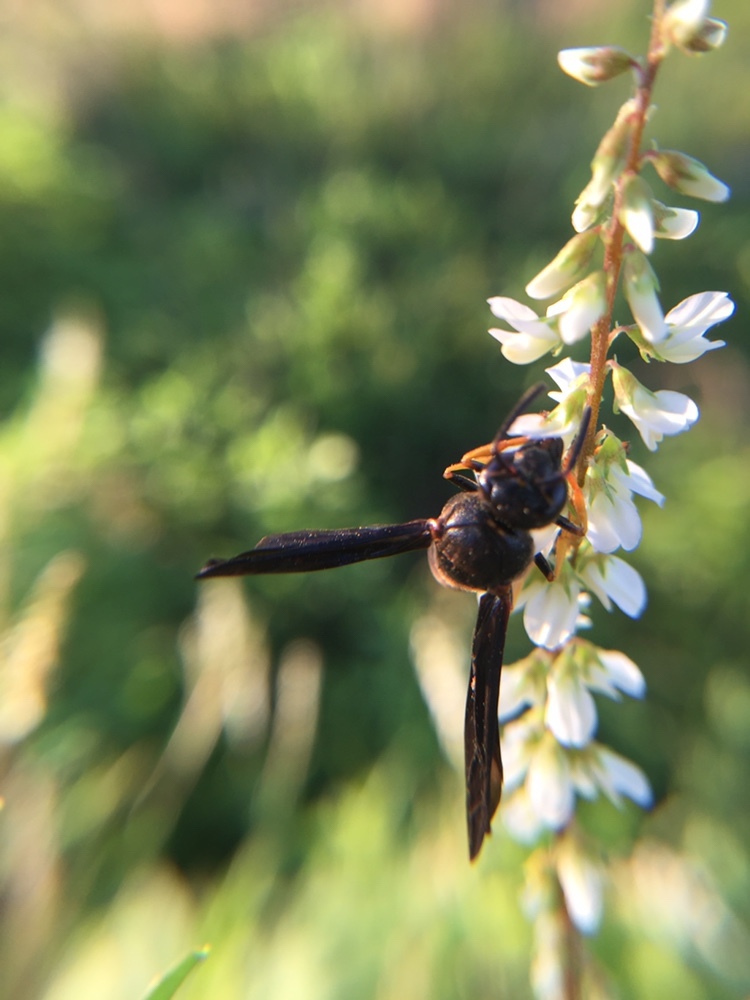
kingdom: Animalia
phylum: Arthropoda
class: Insecta
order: Hymenoptera
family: Eumenidae
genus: Parazumia
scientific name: Parazumia symmorpha
